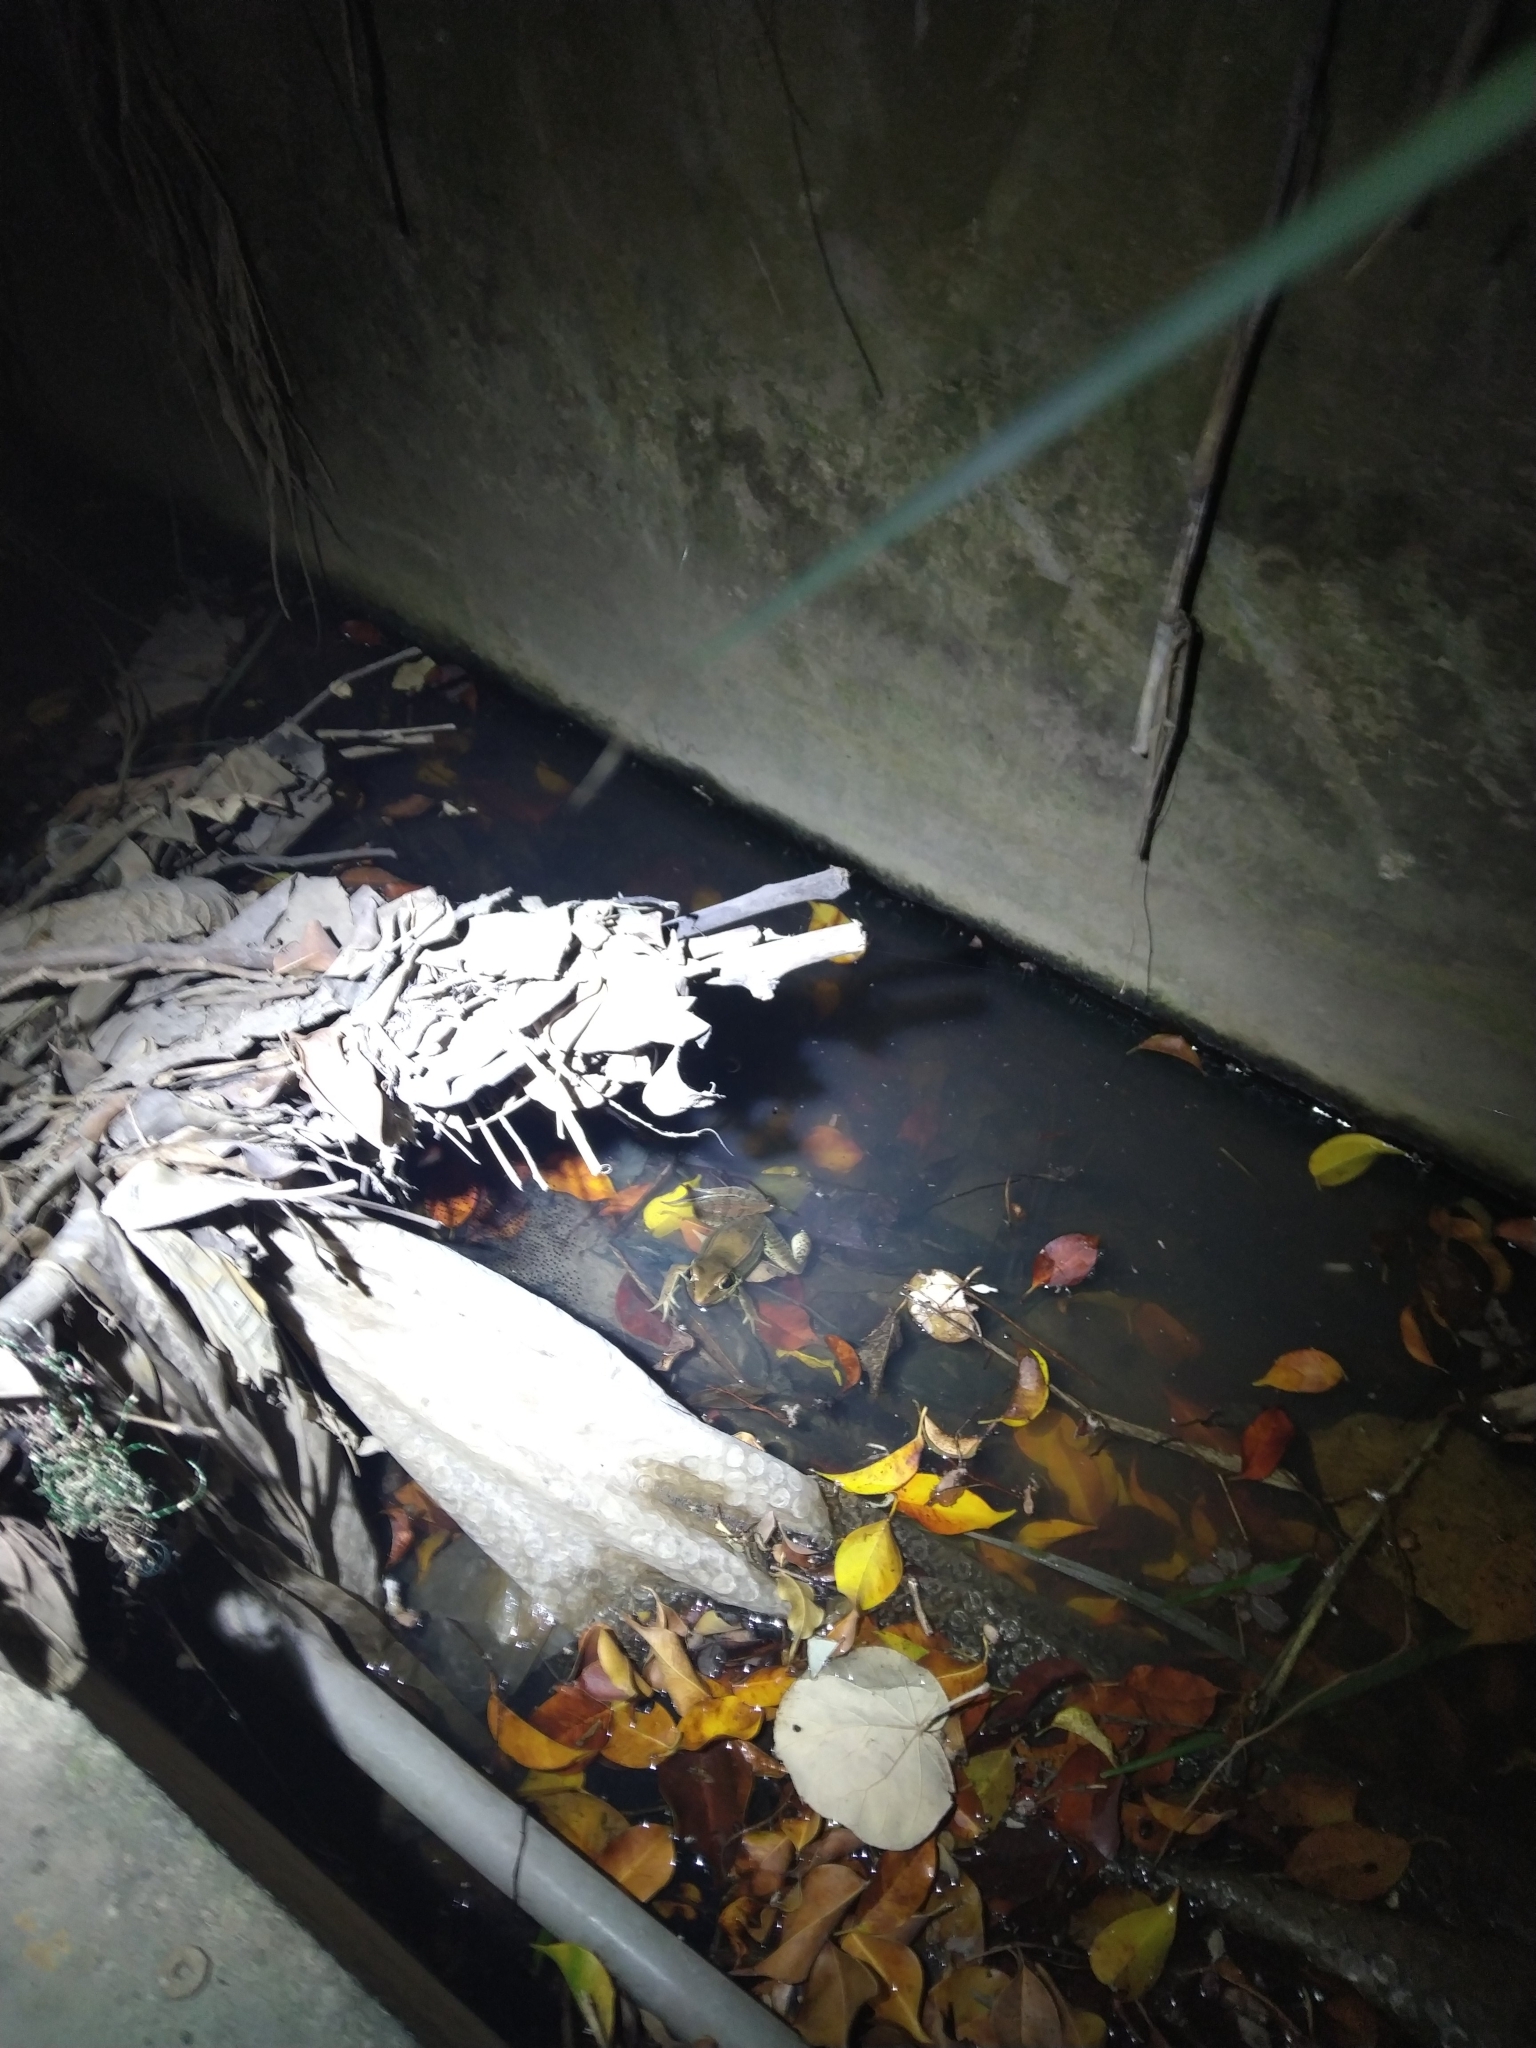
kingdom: Animalia
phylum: Chordata
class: Amphibia
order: Anura
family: Ranidae
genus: Sylvirana
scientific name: Sylvirana guentheri
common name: Guenther's amoy frog
